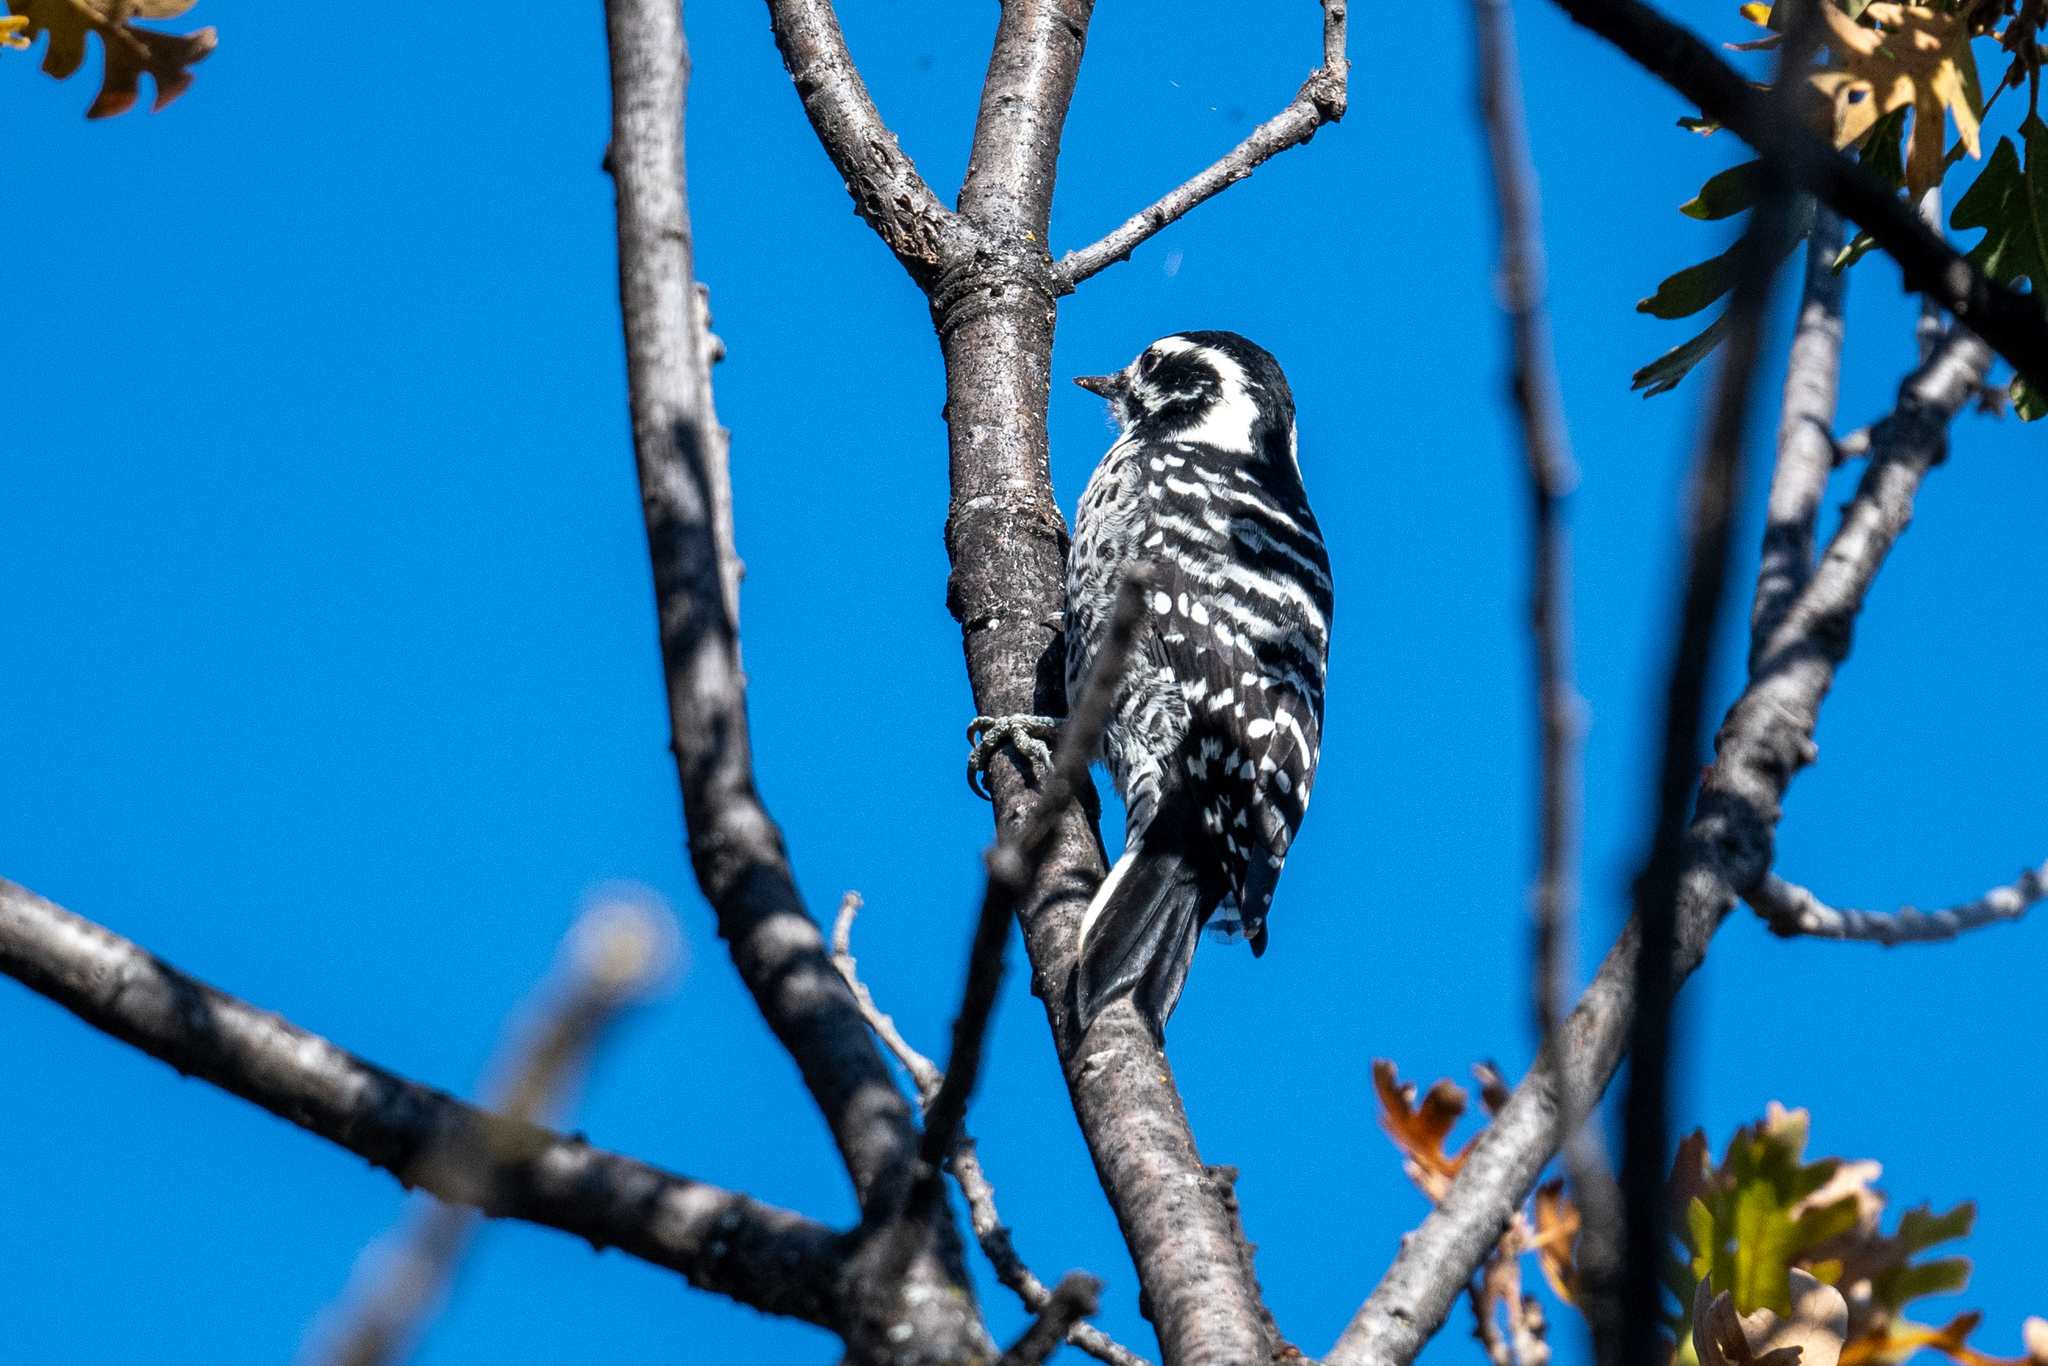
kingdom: Animalia
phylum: Chordata
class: Aves
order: Piciformes
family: Picidae
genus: Dryobates
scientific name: Dryobates nuttallii
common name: Nuttall's woodpecker
